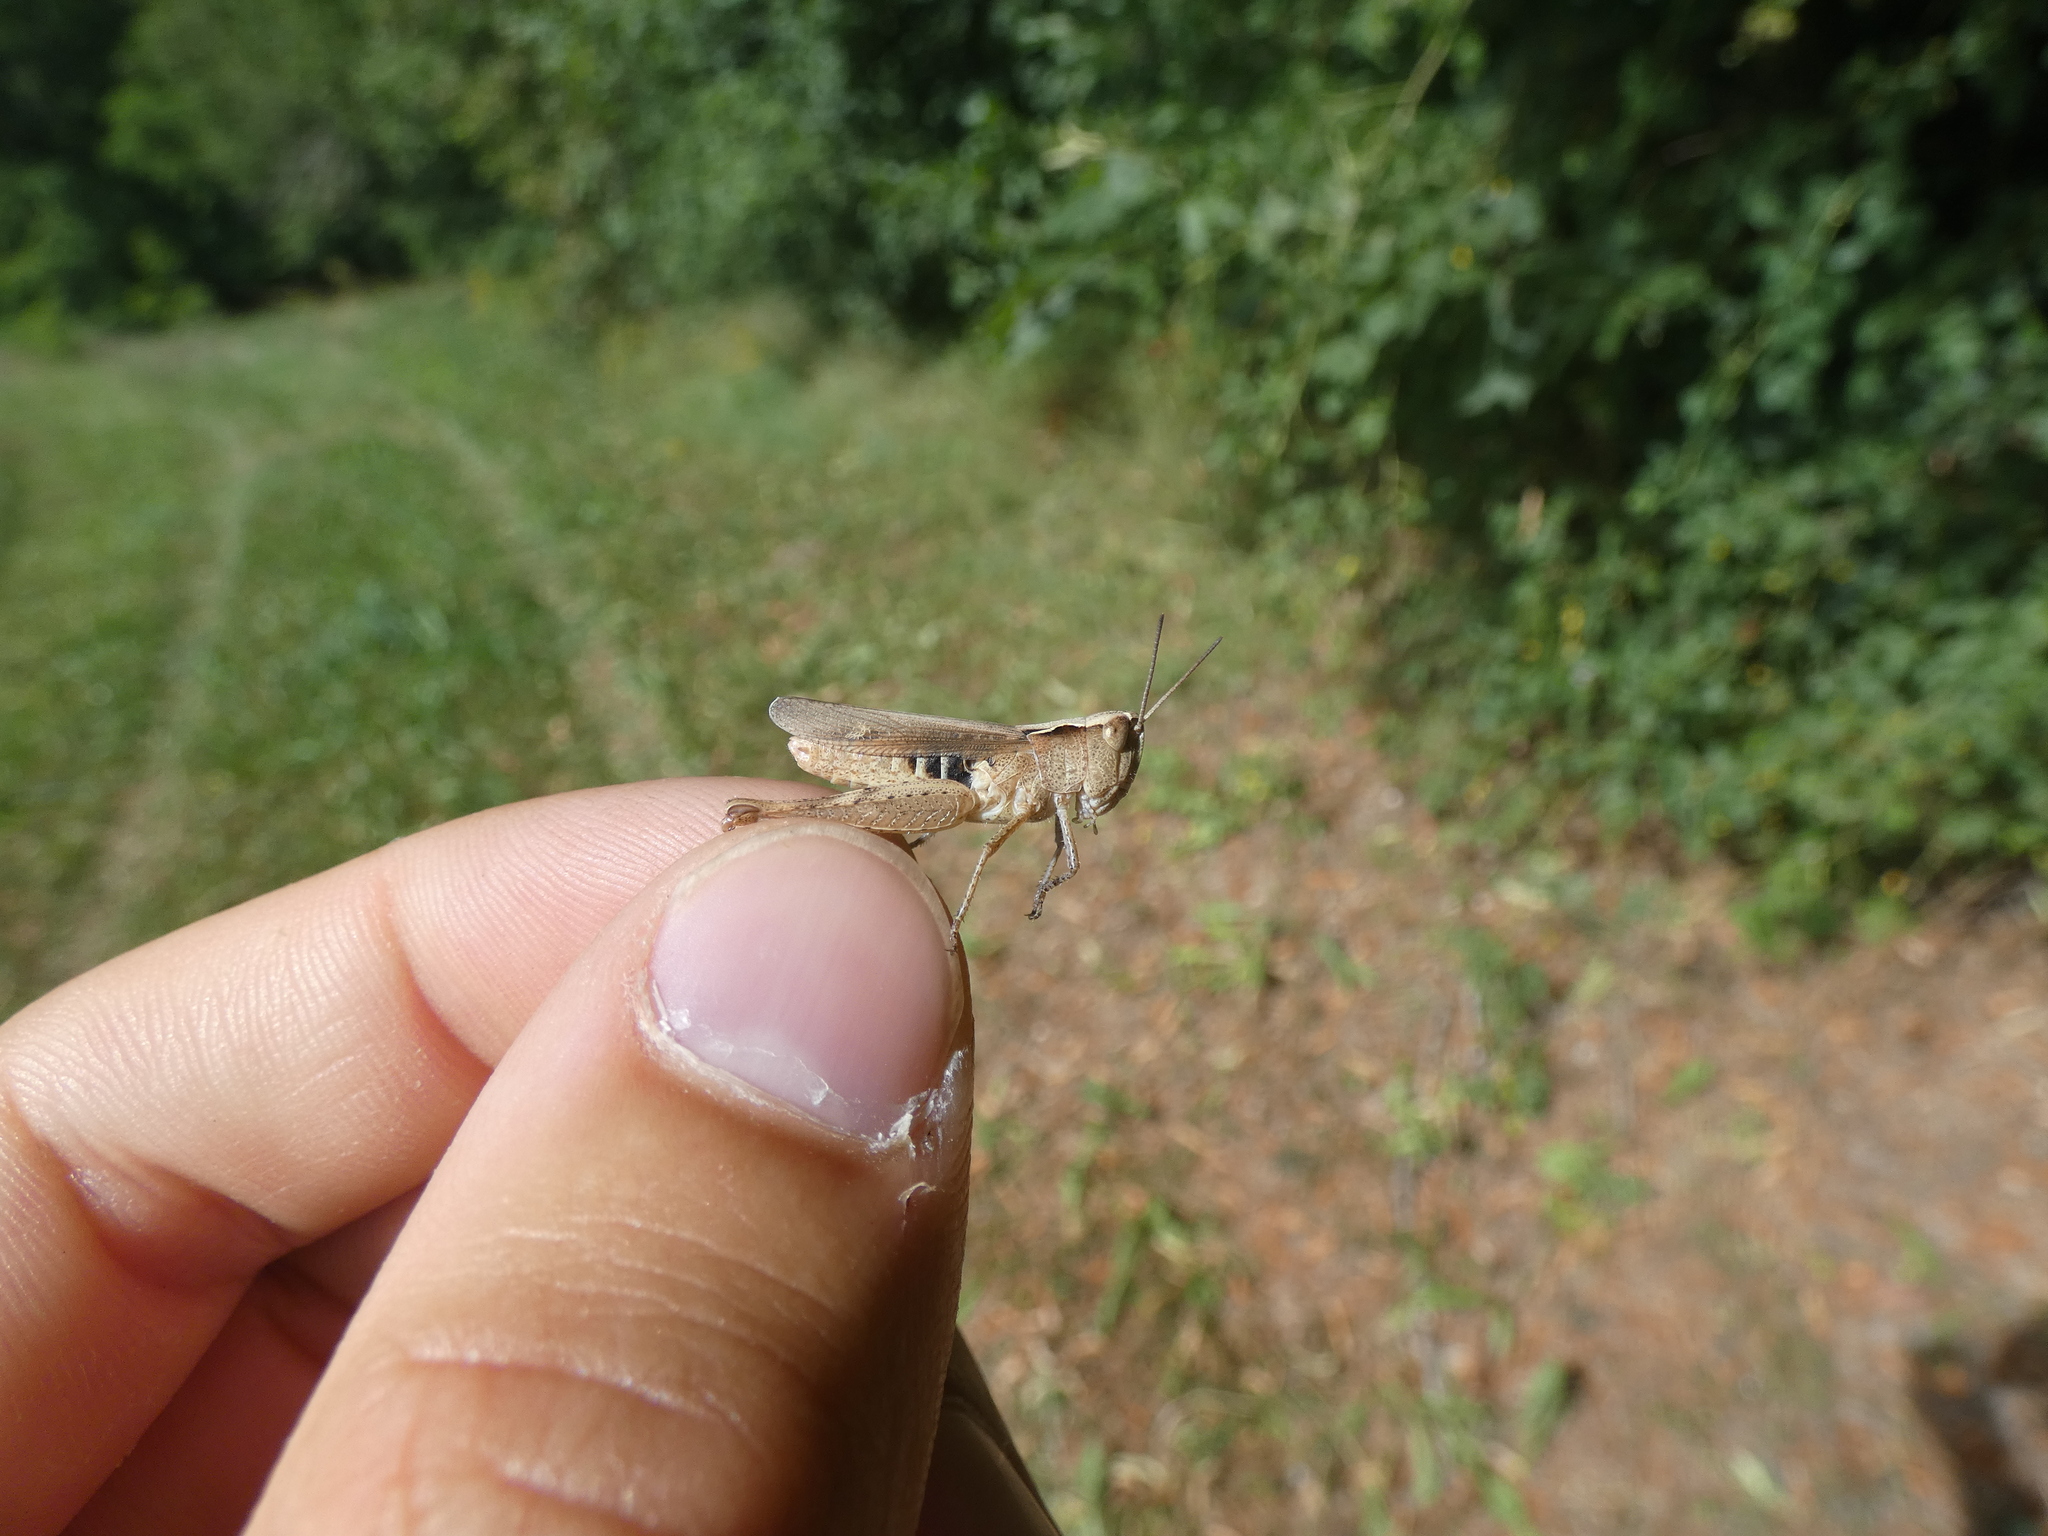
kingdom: Animalia
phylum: Arthropoda
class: Insecta
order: Orthoptera
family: Acrididae
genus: Chorthippus
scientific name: Chorthippus vagans
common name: Heath grasshopper
